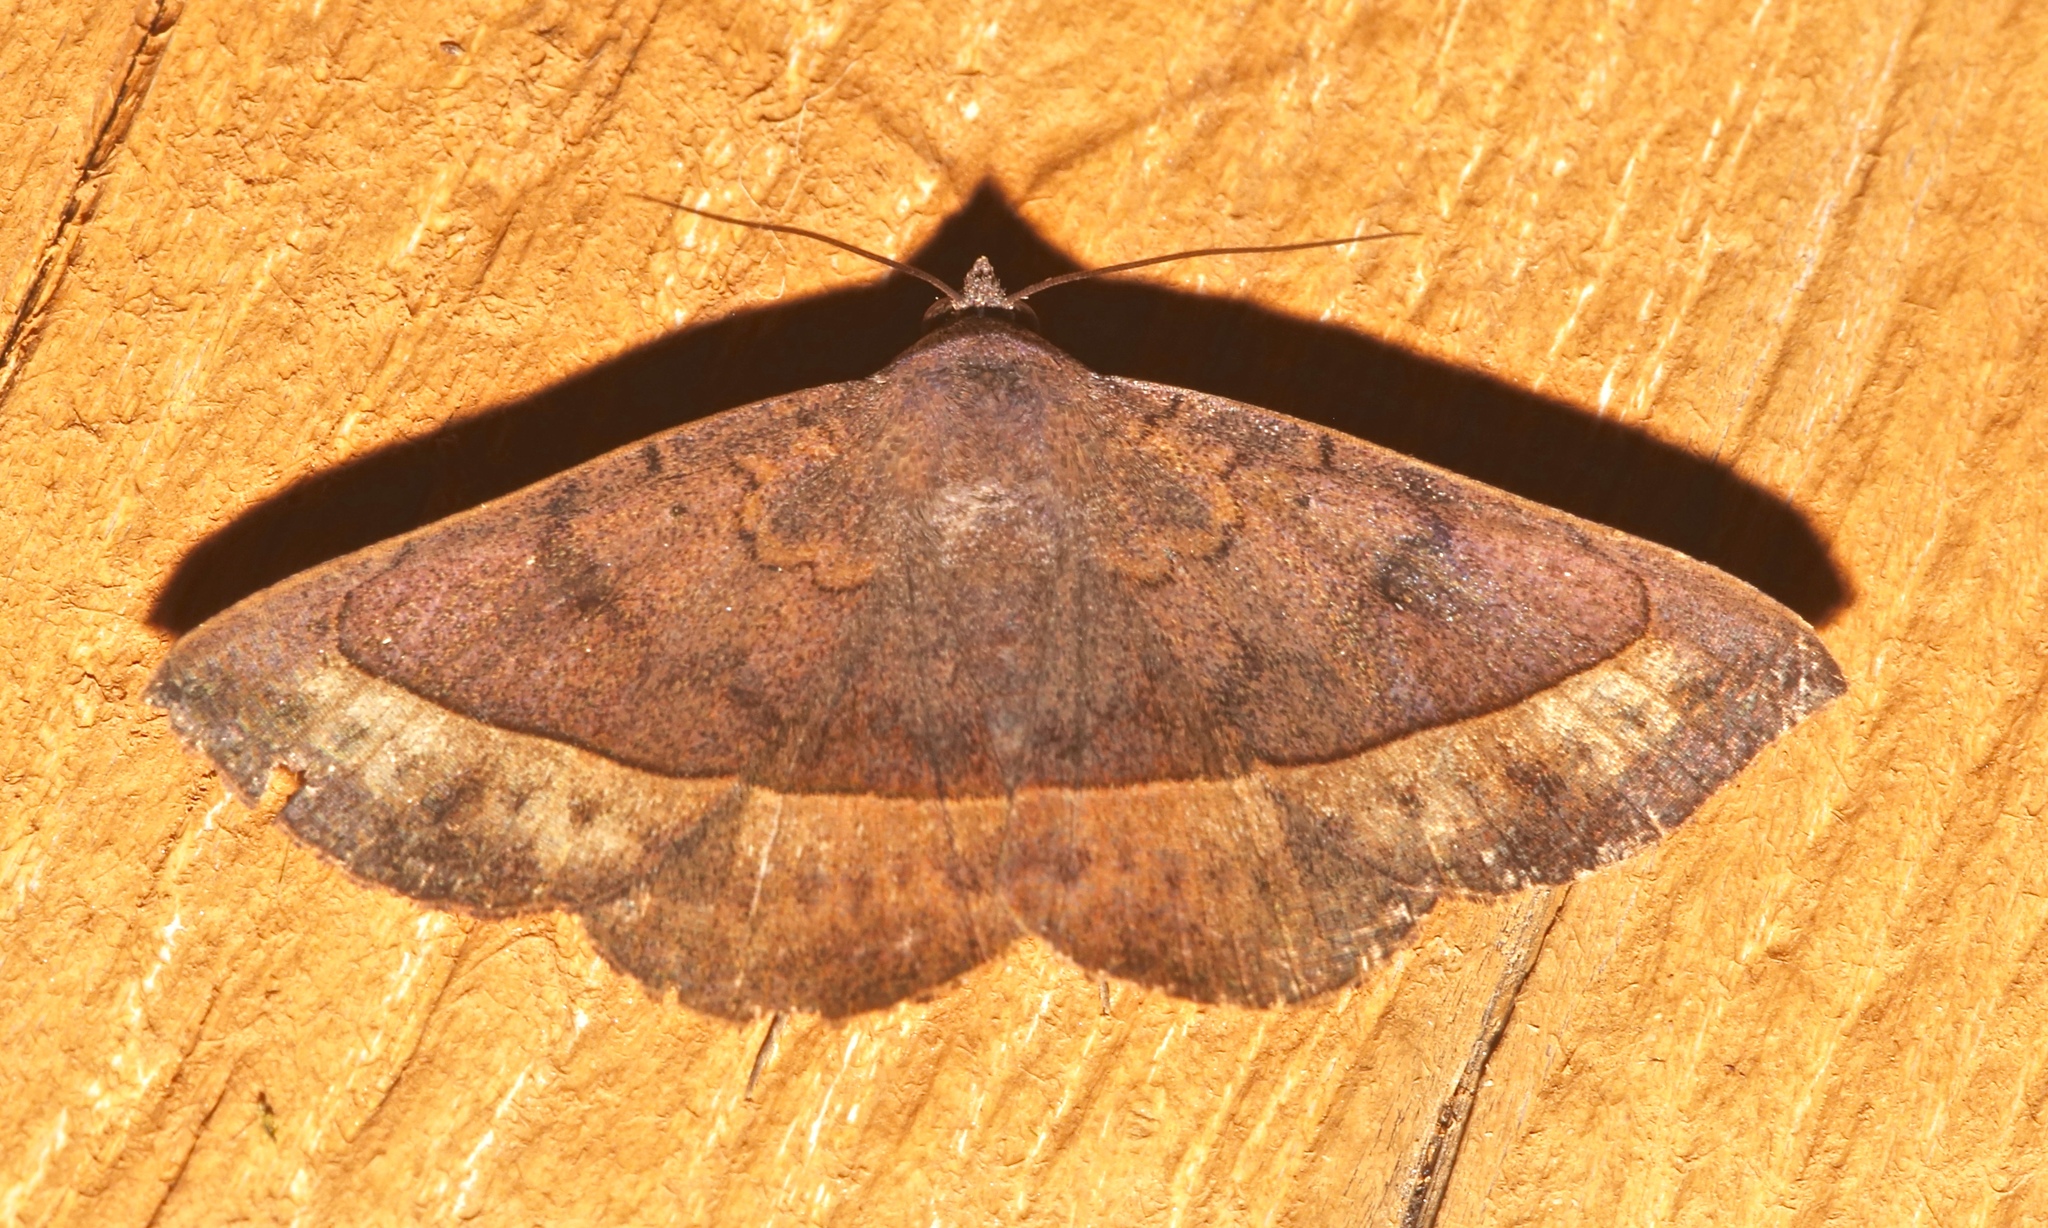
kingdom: Animalia
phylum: Arthropoda
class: Insecta
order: Lepidoptera
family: Erebidae
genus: Epidromia
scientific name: Epidromia rotundata
